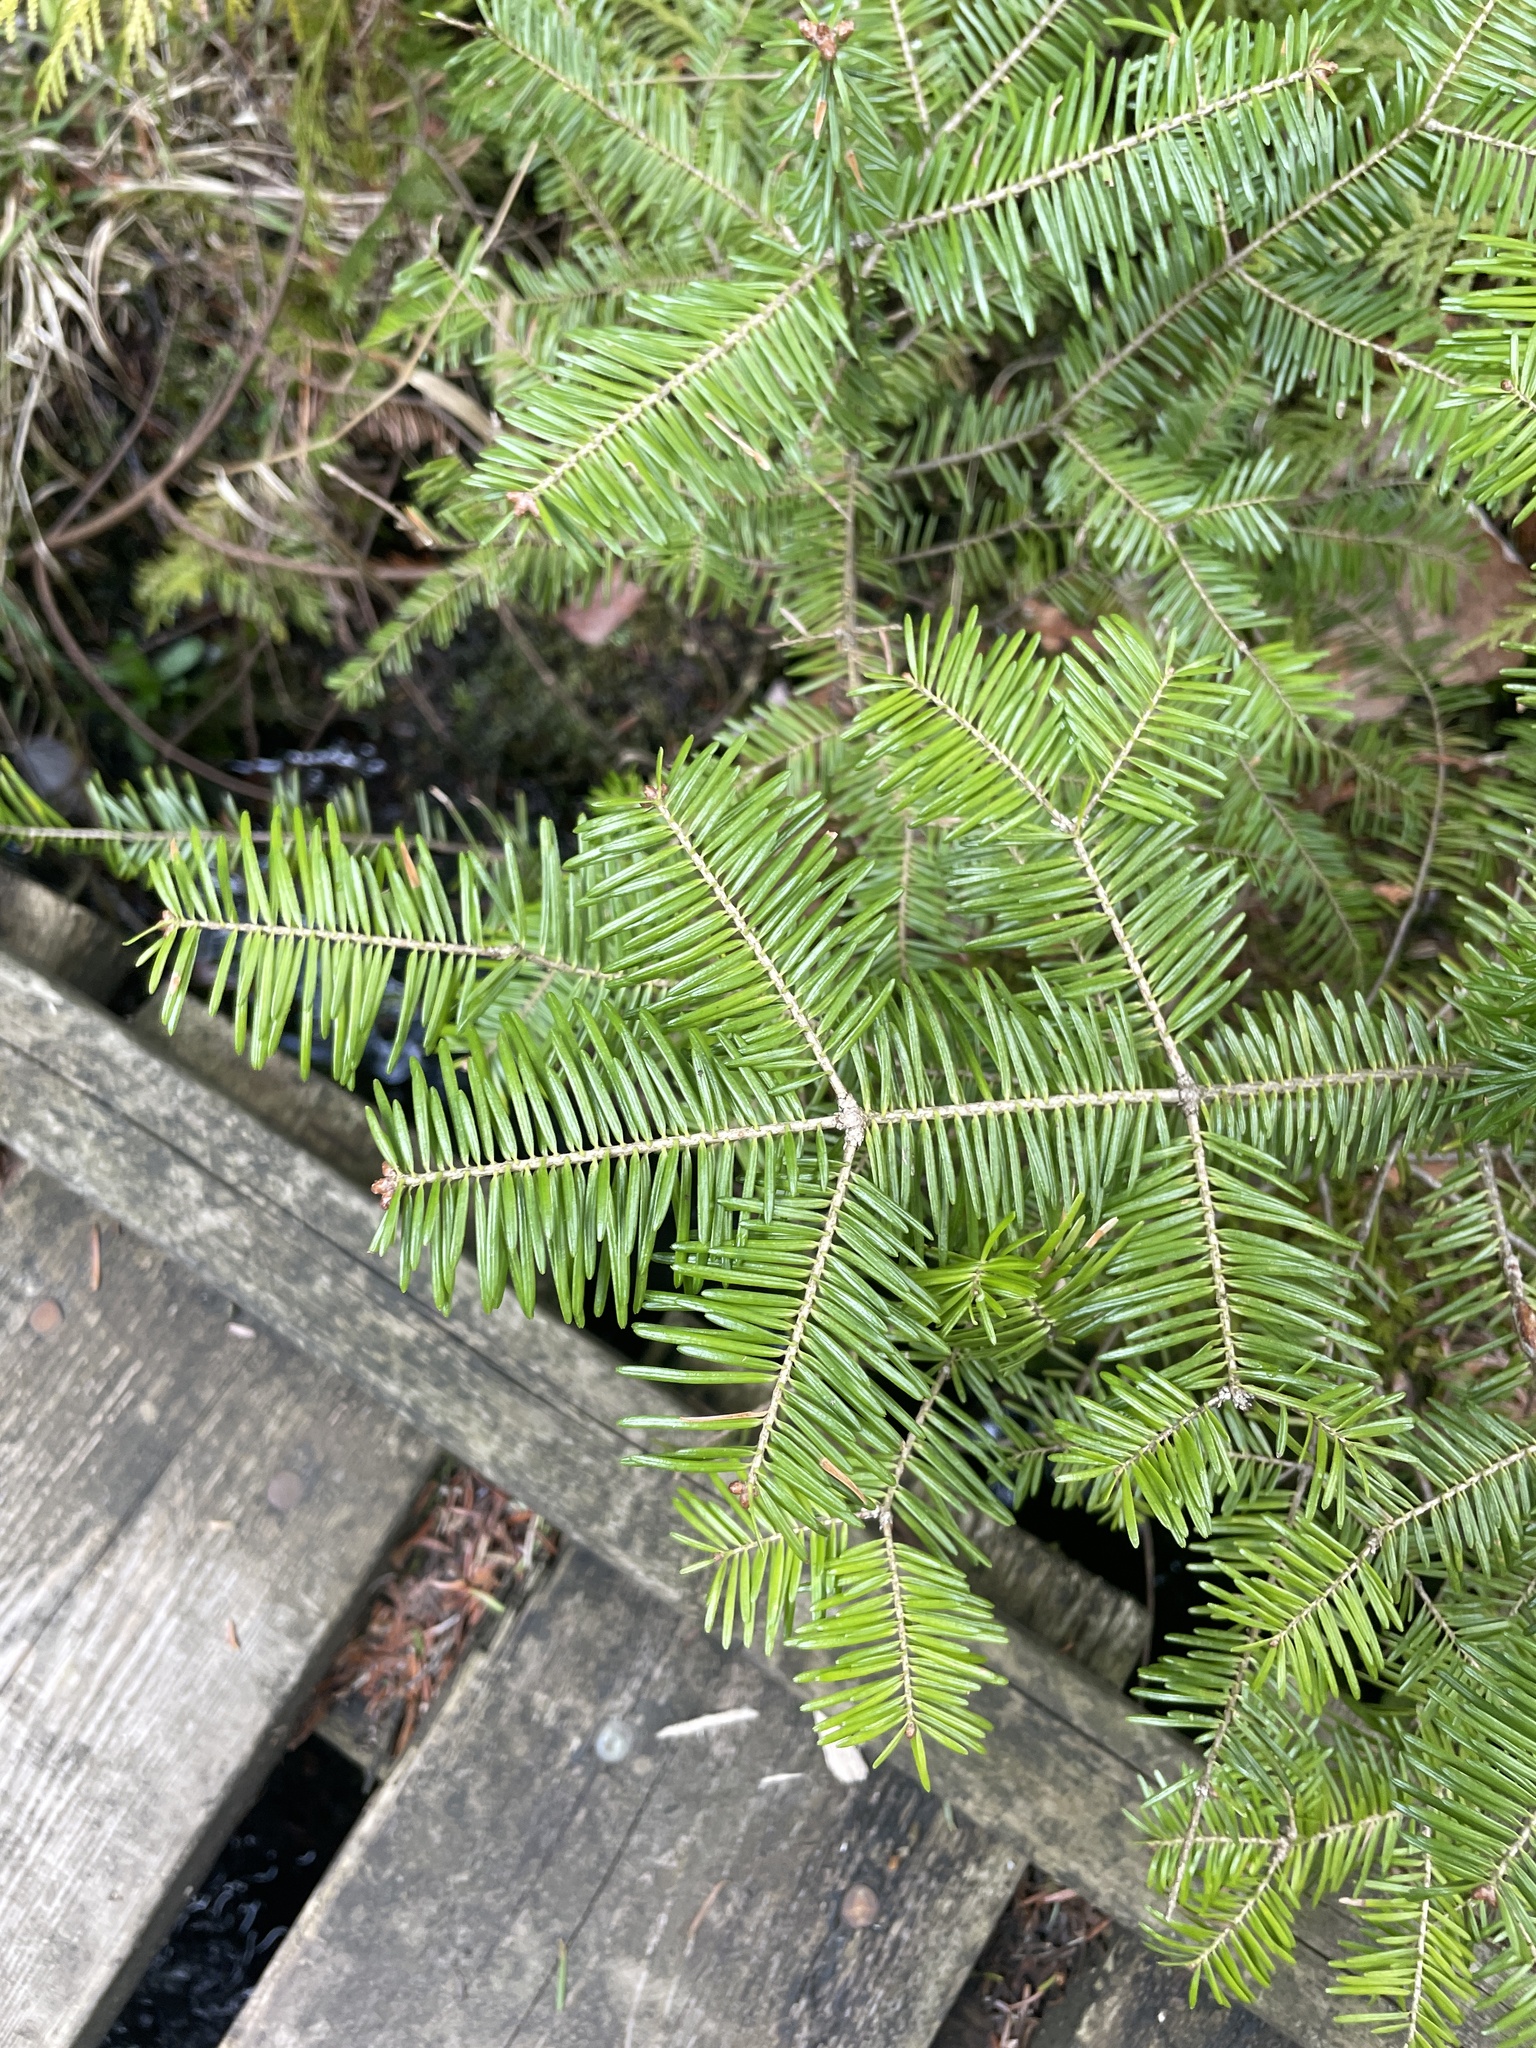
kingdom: Plantae
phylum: Tracheophyta
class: Pinopsida
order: Pinales
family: Pinaceae
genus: Abies
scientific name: Abies balsamea
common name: Balsam fir
